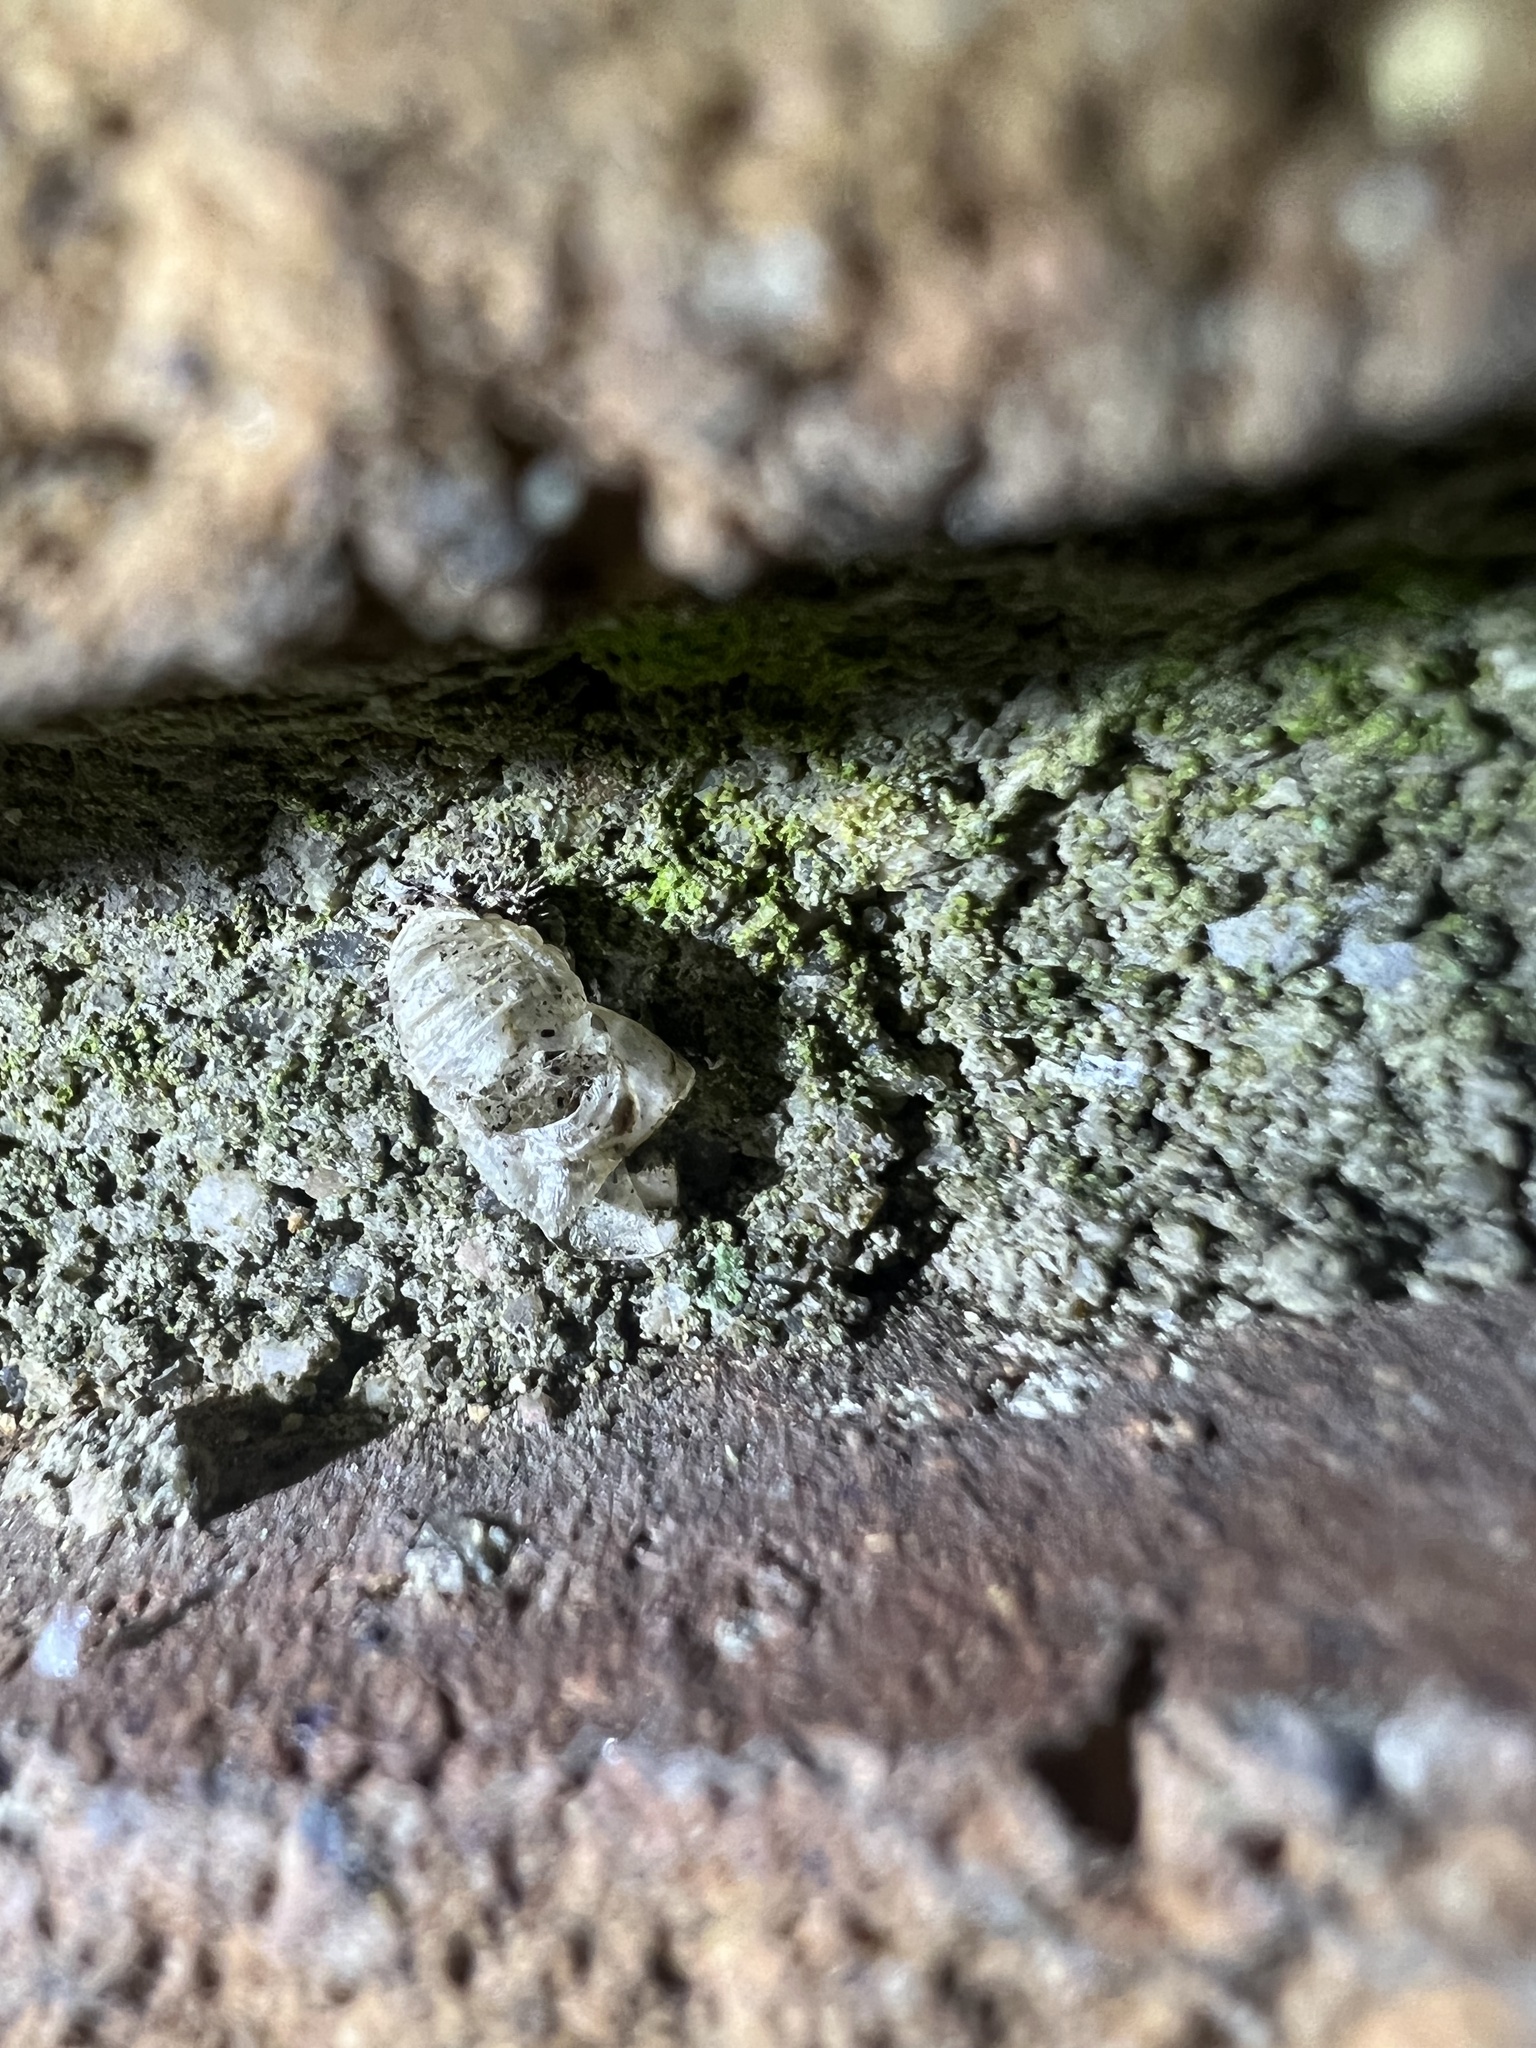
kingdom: Animalia
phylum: Arthropoda
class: Insecta
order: Coleoptera
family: Coccinellidae
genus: Harmonia
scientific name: Harmonia axyridis
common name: Harlequin ladybird
